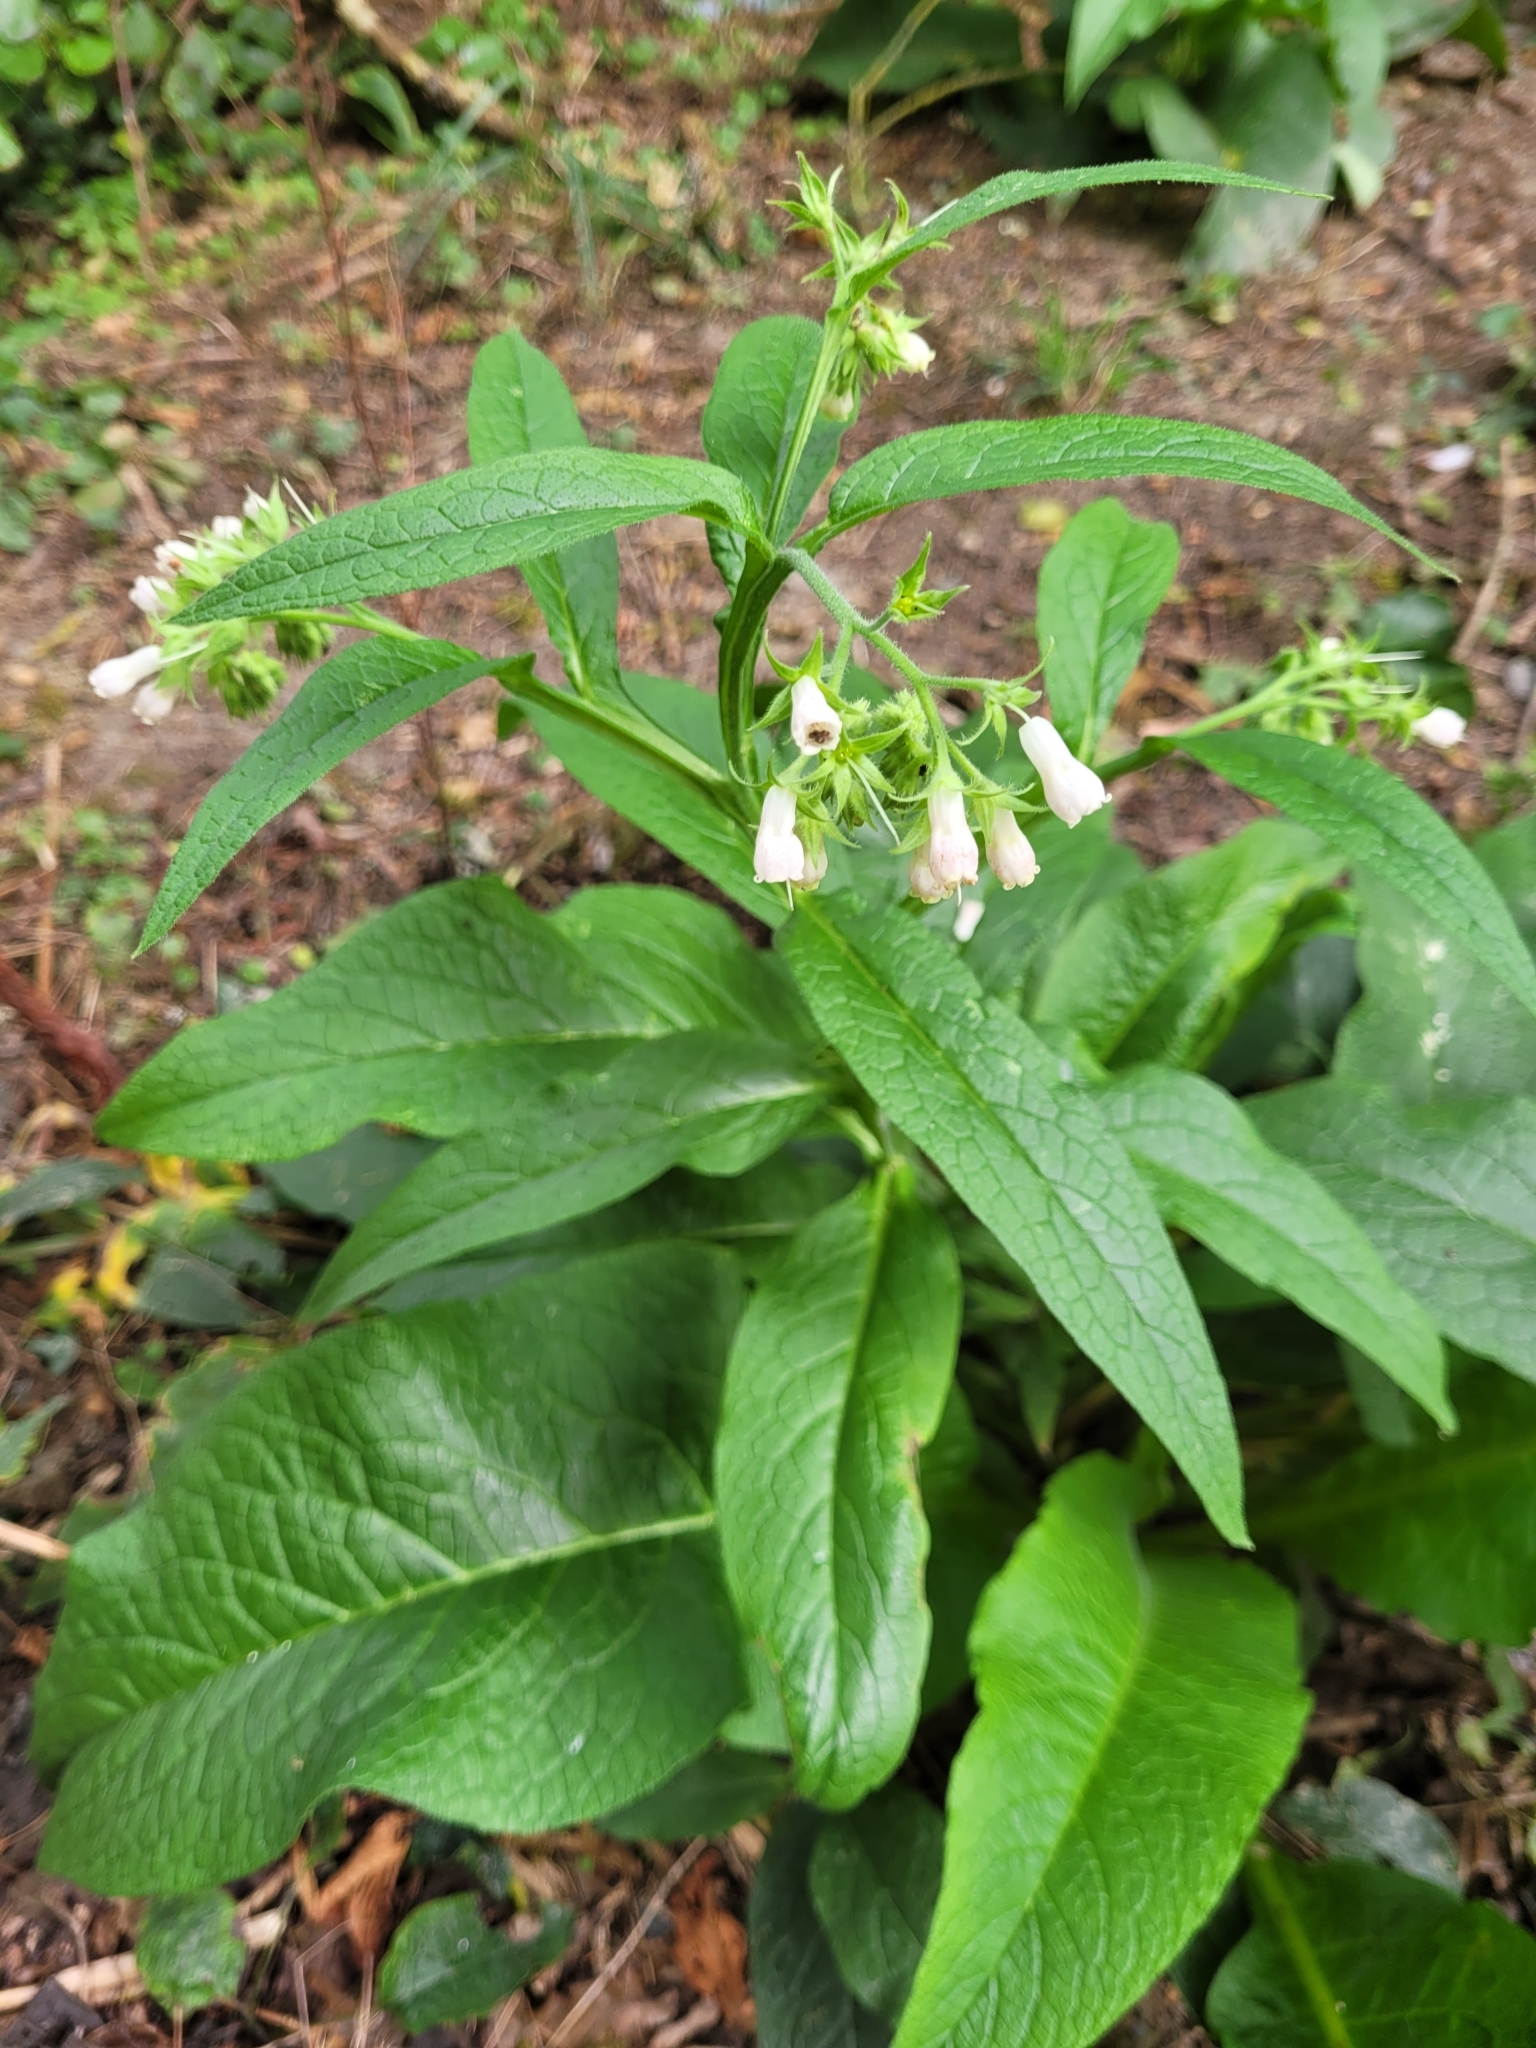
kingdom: Plantae
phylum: Tracheophyta
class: Magnoliopsida
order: Boraginales
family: Boraginaceae
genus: Symphytum
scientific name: Symphytum officinale
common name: Common comfrey
